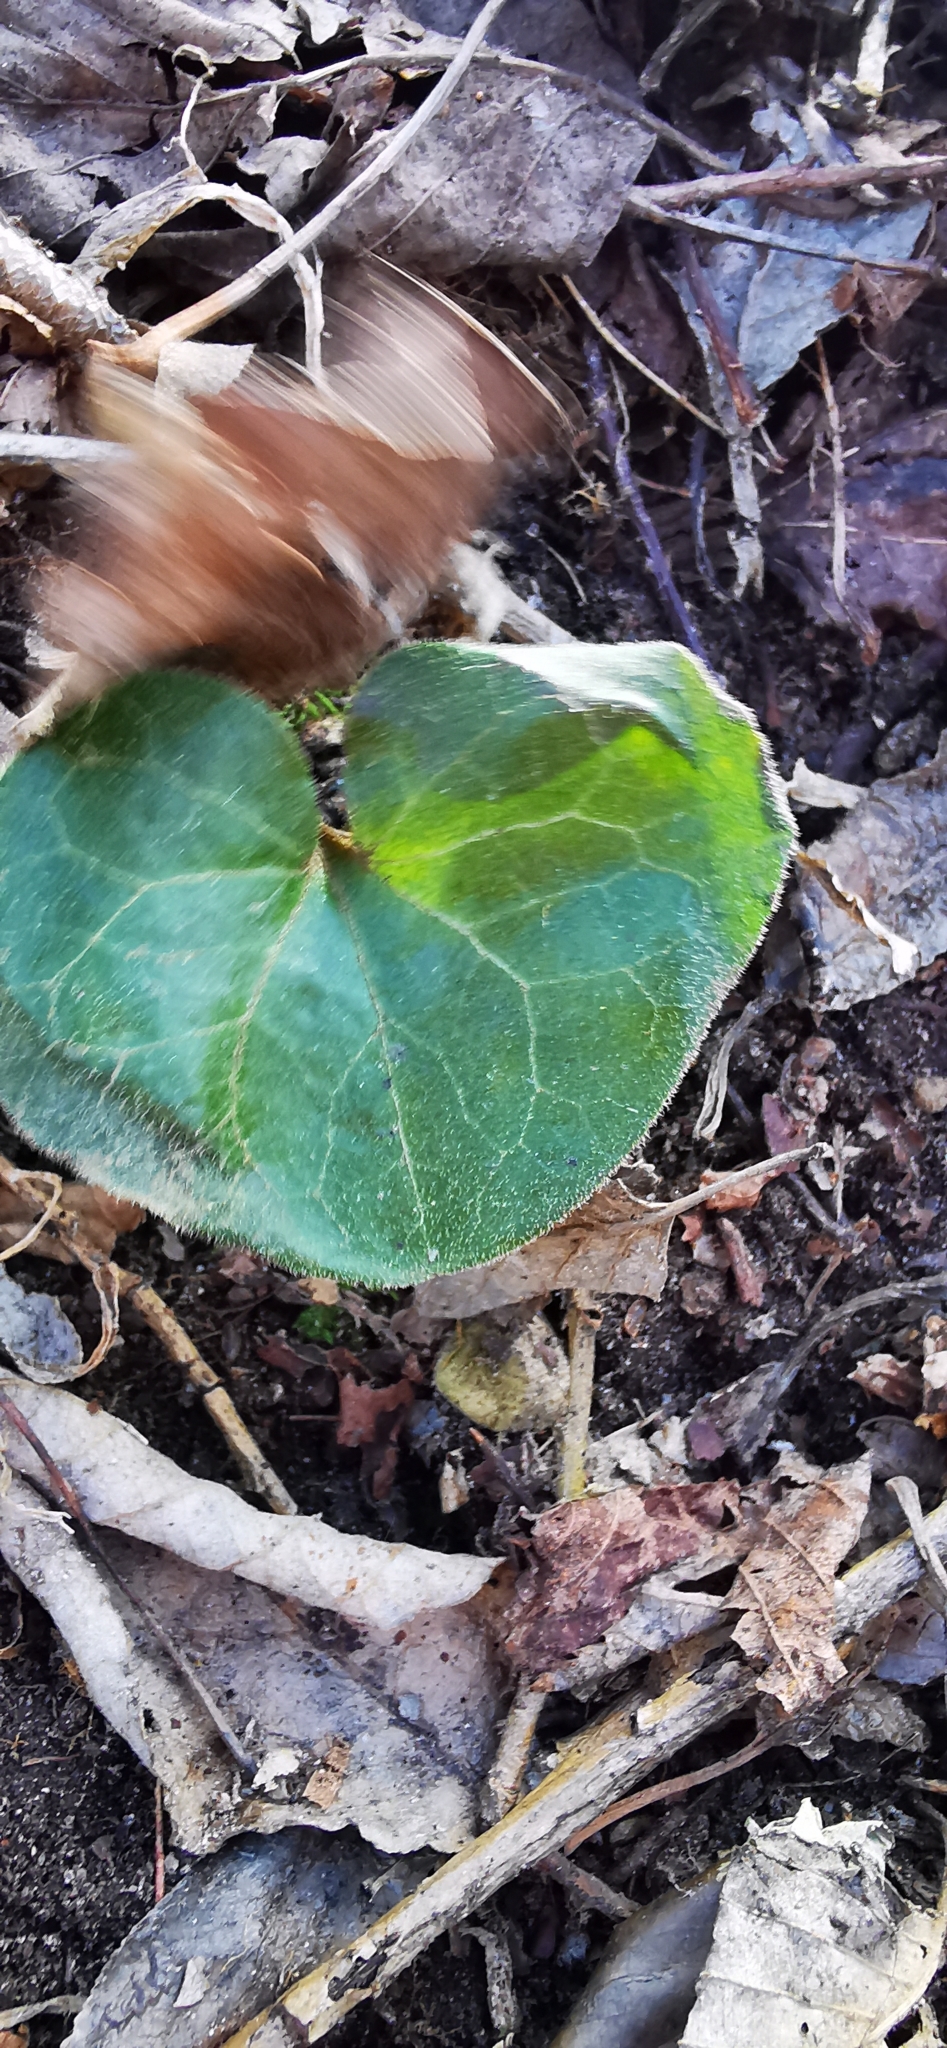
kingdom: Plantae
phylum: Tracheophyta
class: Magnoliopsida
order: Piperales
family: Aristolochiaceae
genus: Asarum
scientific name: Asarum europaeum
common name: Asarabacca
